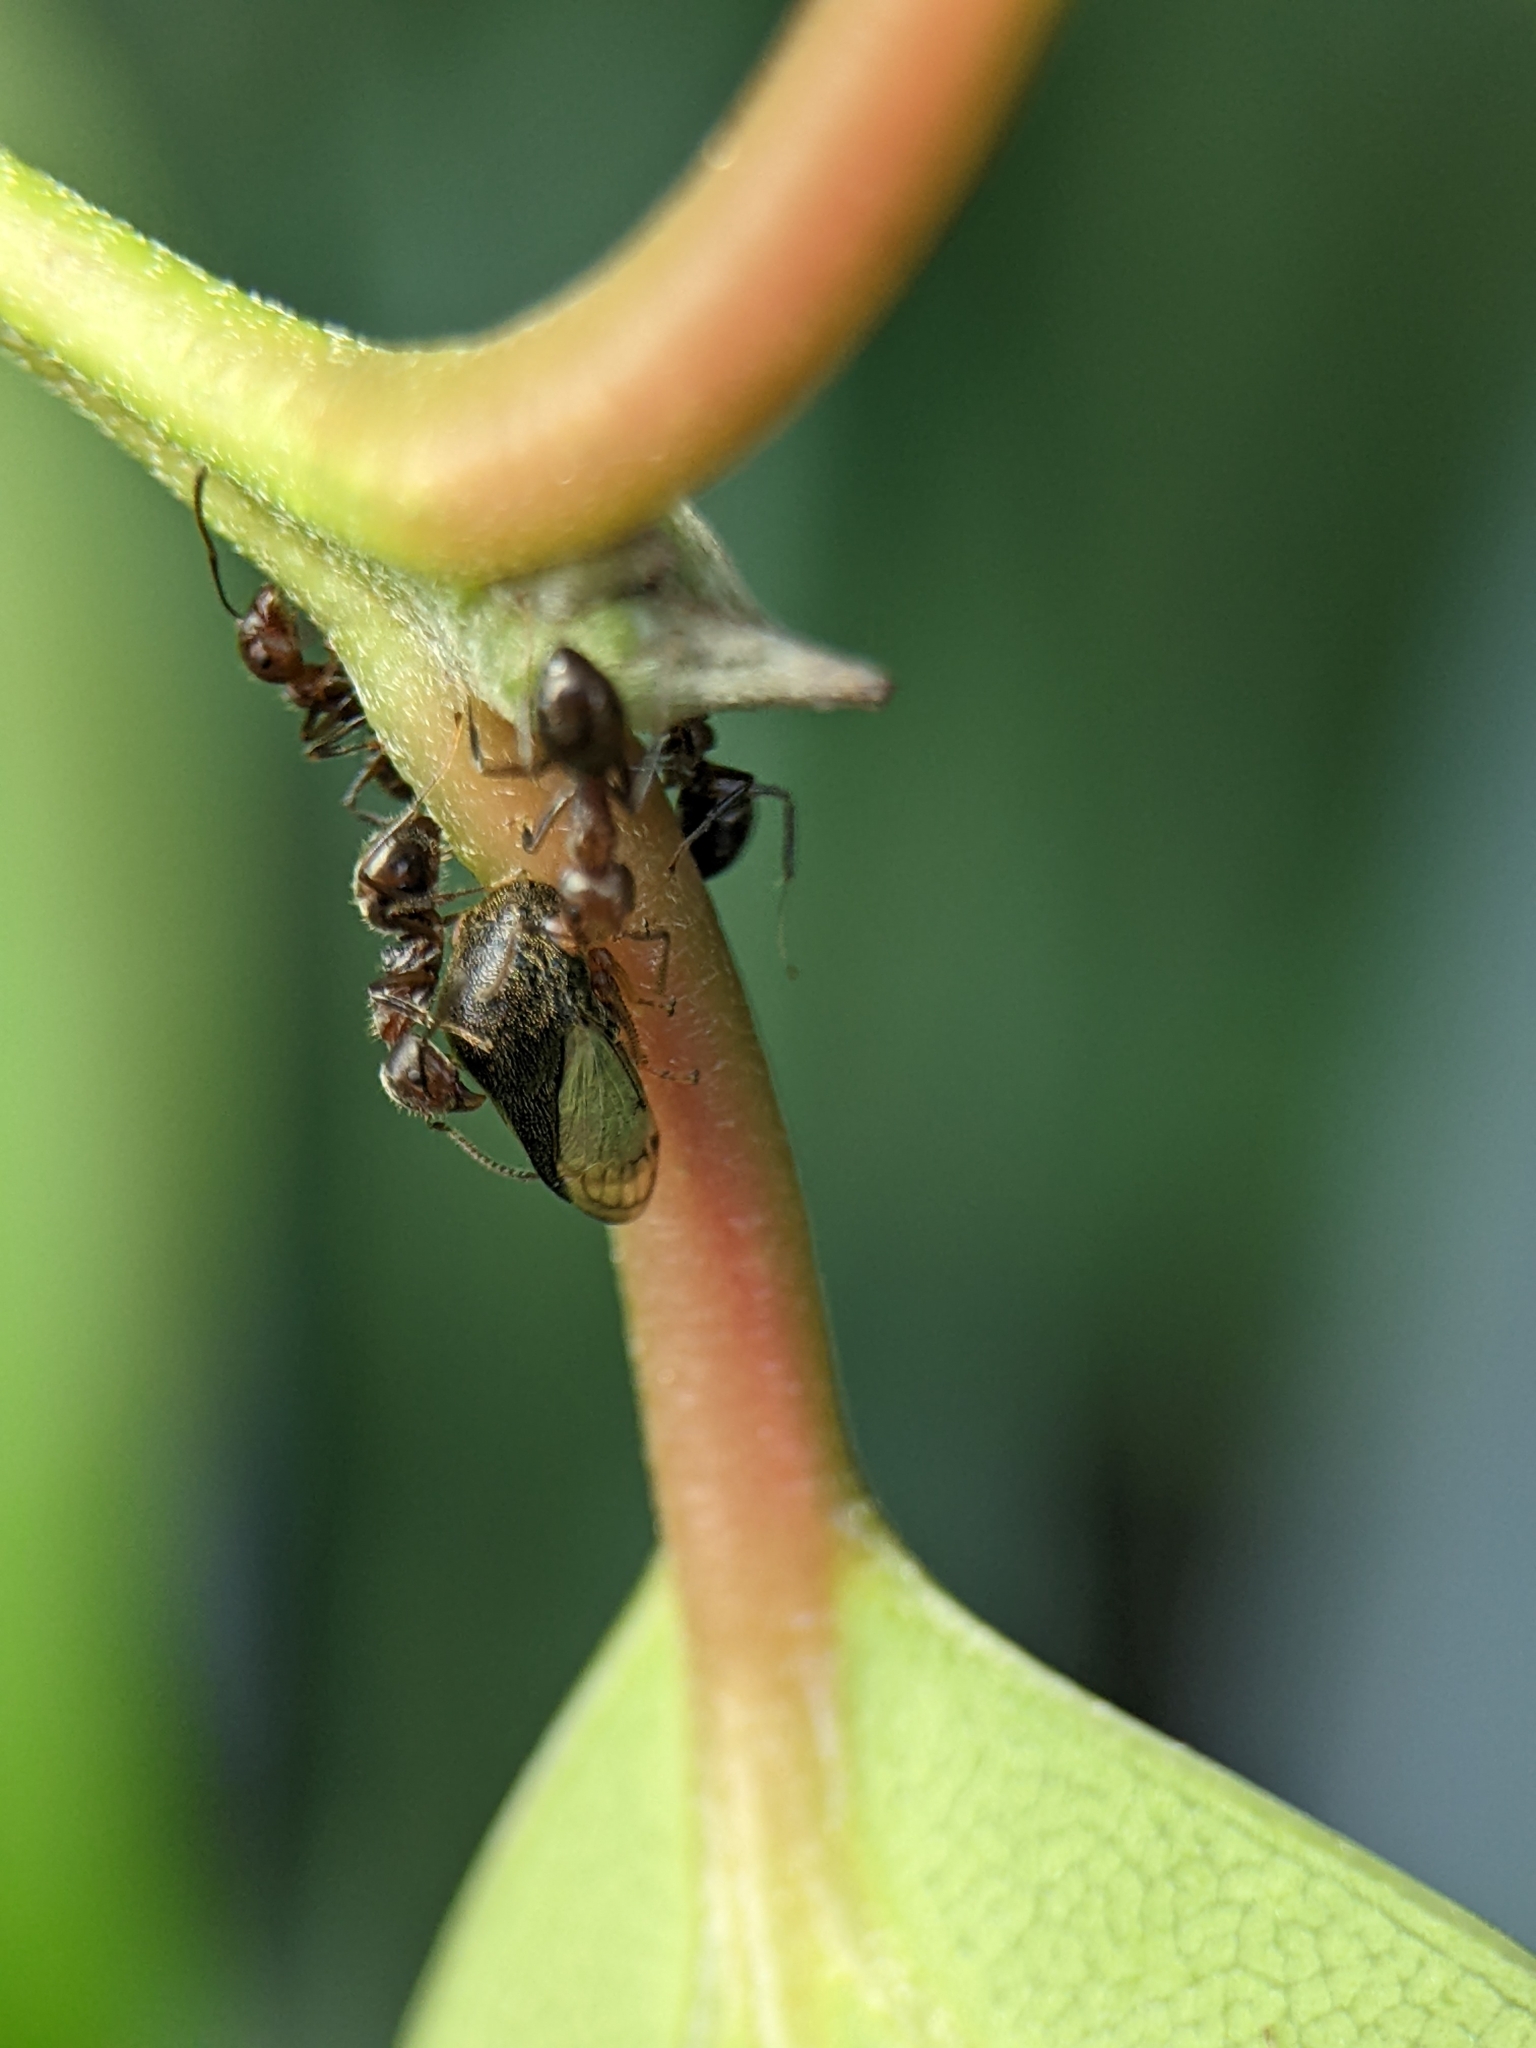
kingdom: Animalia
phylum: Arthropoda
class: Insecta
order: Hymenoptera
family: Formicidae
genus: Dolichoderus
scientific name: Dolichoderus thoracicus
